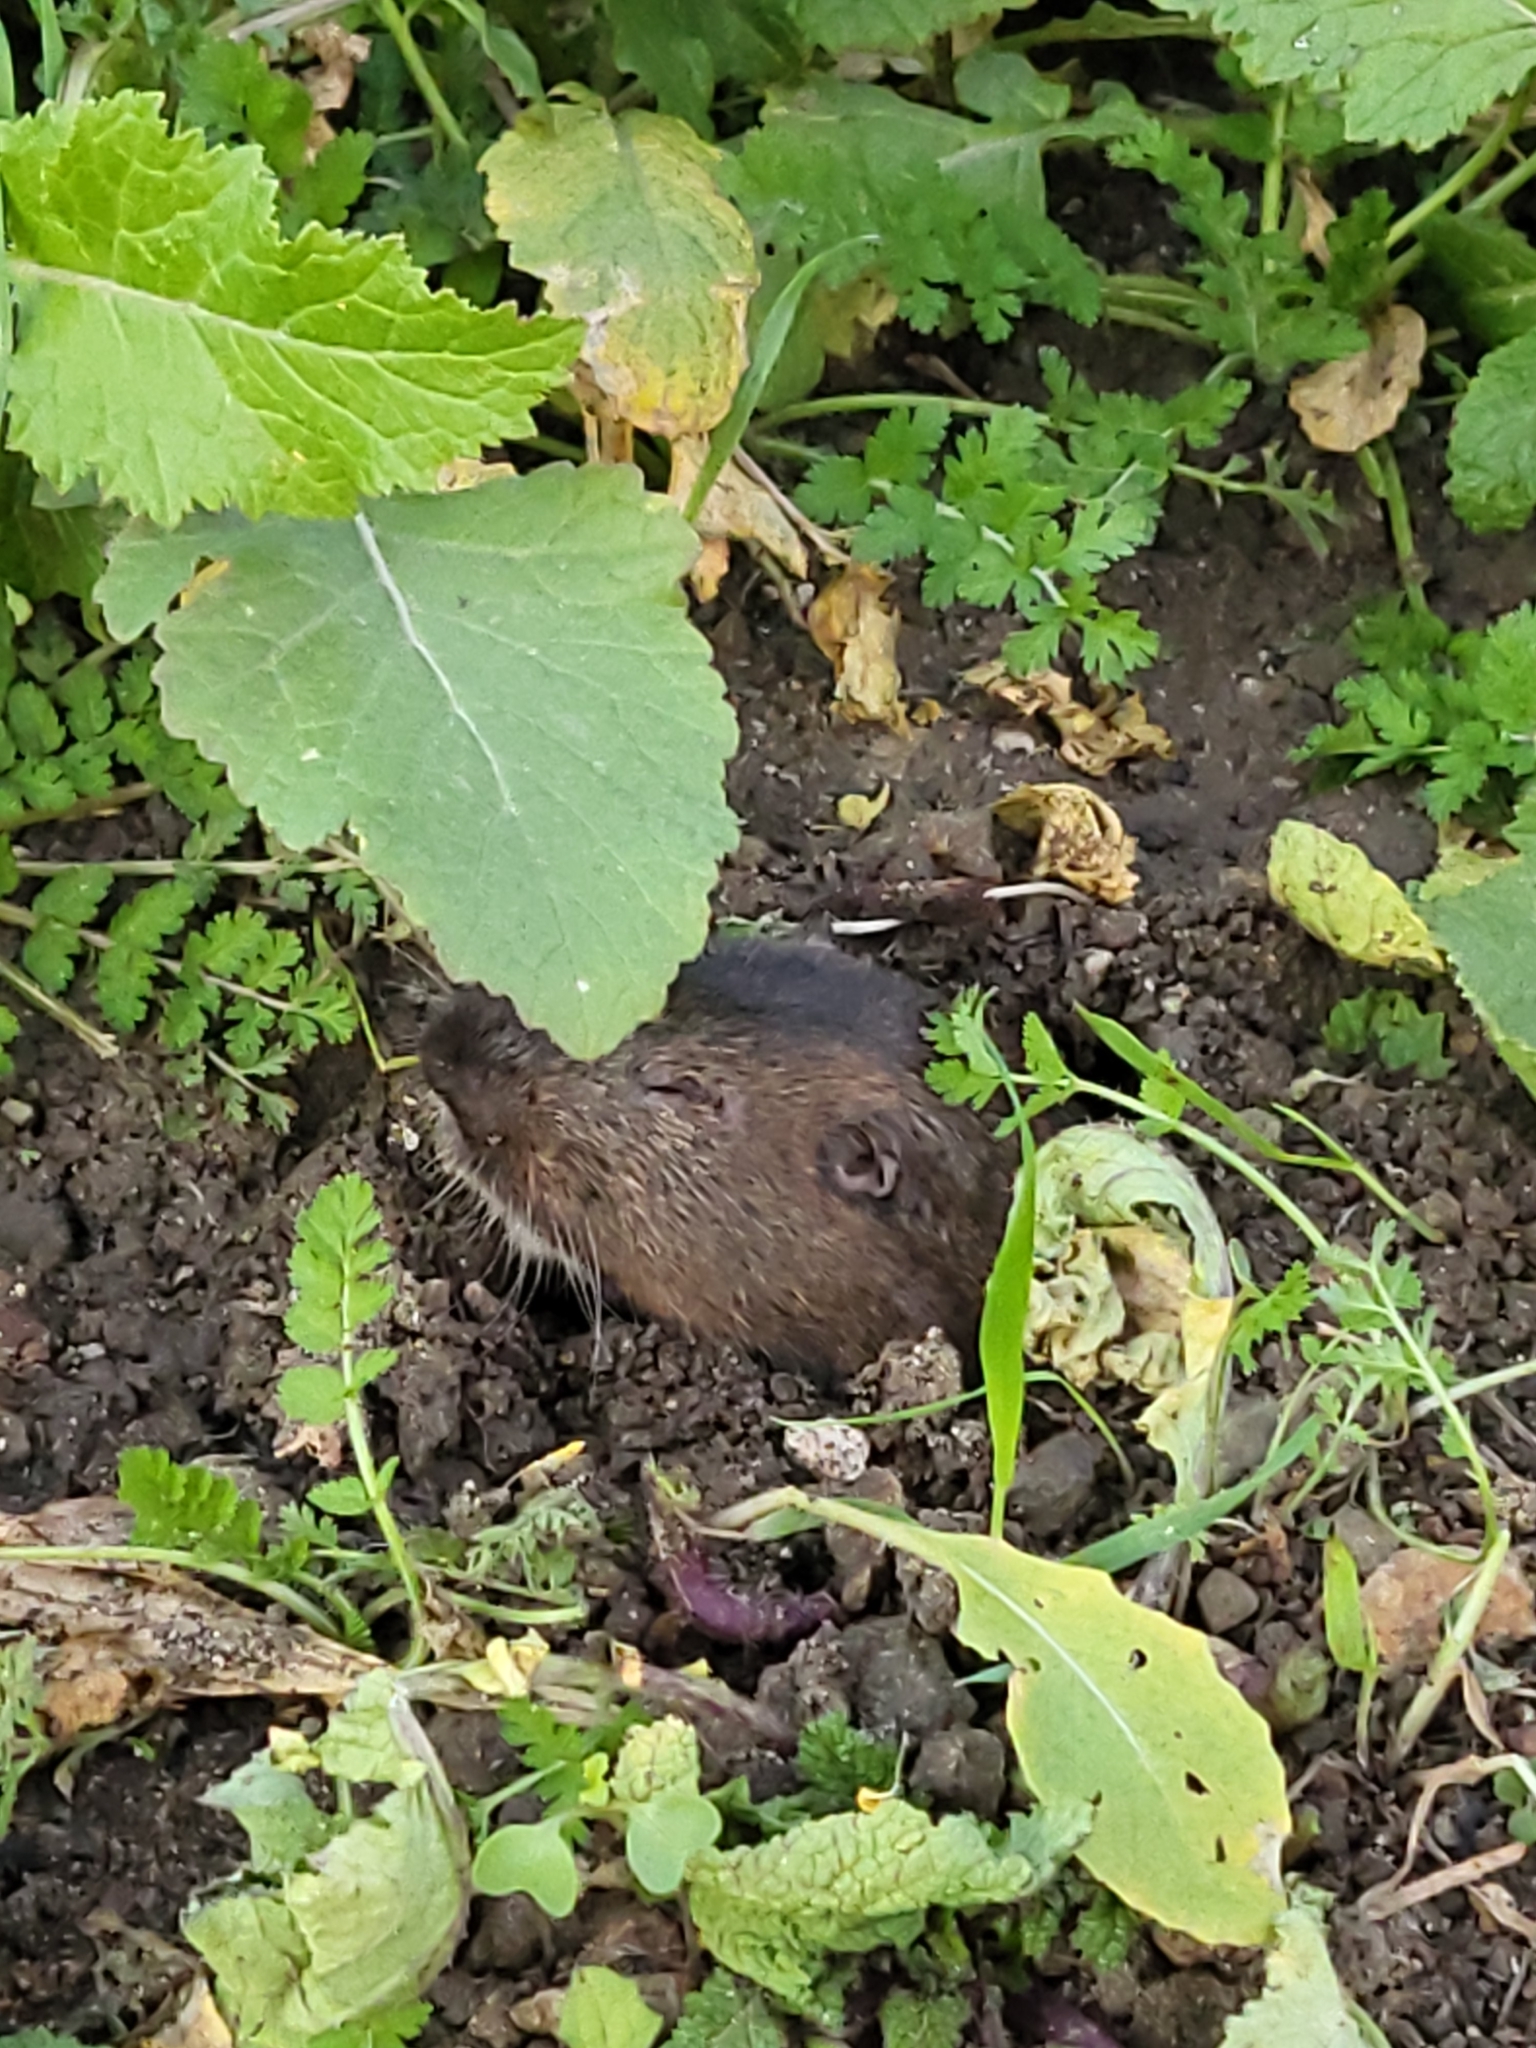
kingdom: Animalia
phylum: Chordata
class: Mammalia
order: Rodentia
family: Geomyidae
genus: Thomomys
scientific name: Thomomys bottae
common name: Botta's pocket gopher
